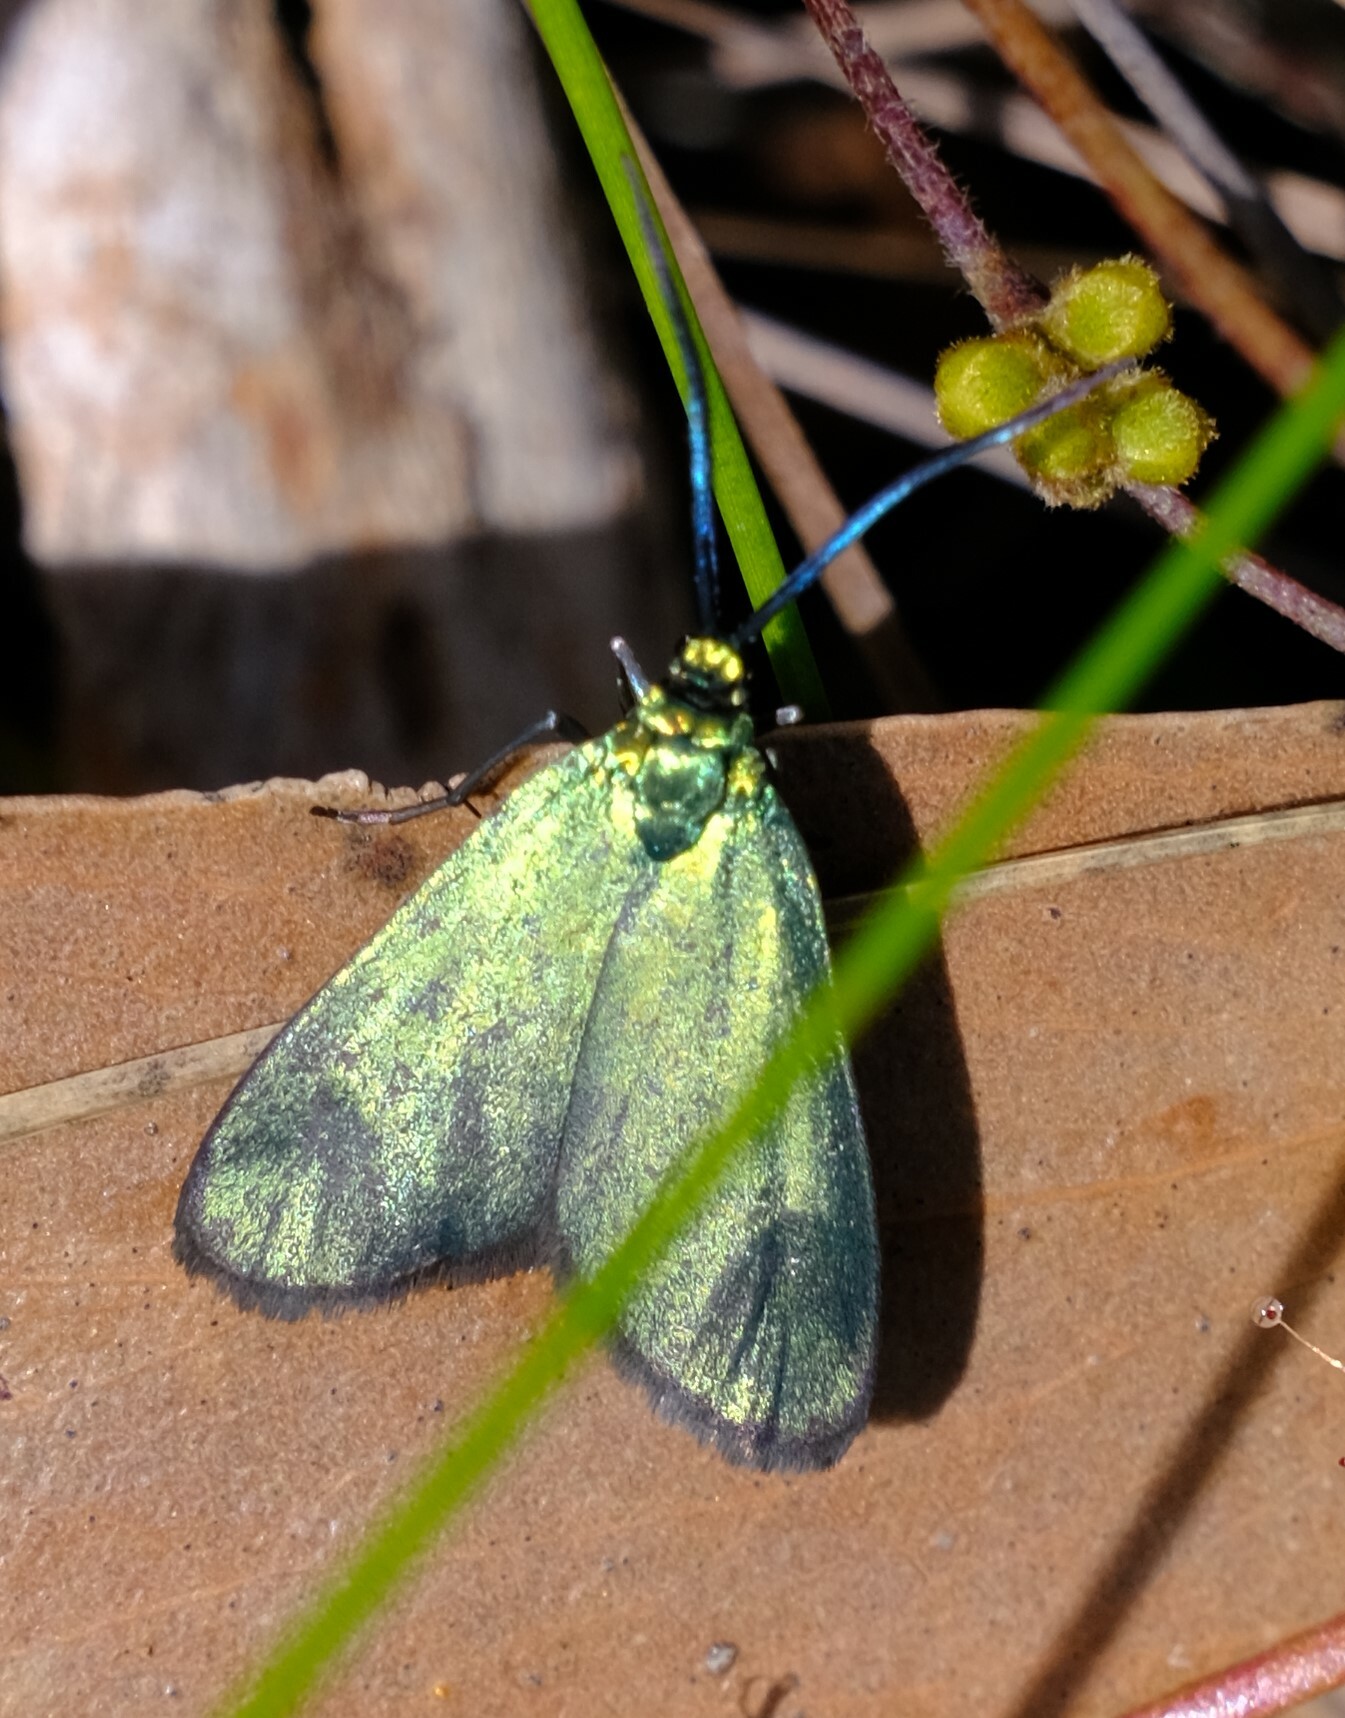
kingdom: Animalia
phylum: Arthropoda
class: Insecta
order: Lepidoptera
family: Zygaenidae
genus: Pollanisus
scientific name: Pollanisus viridipulverulenta
